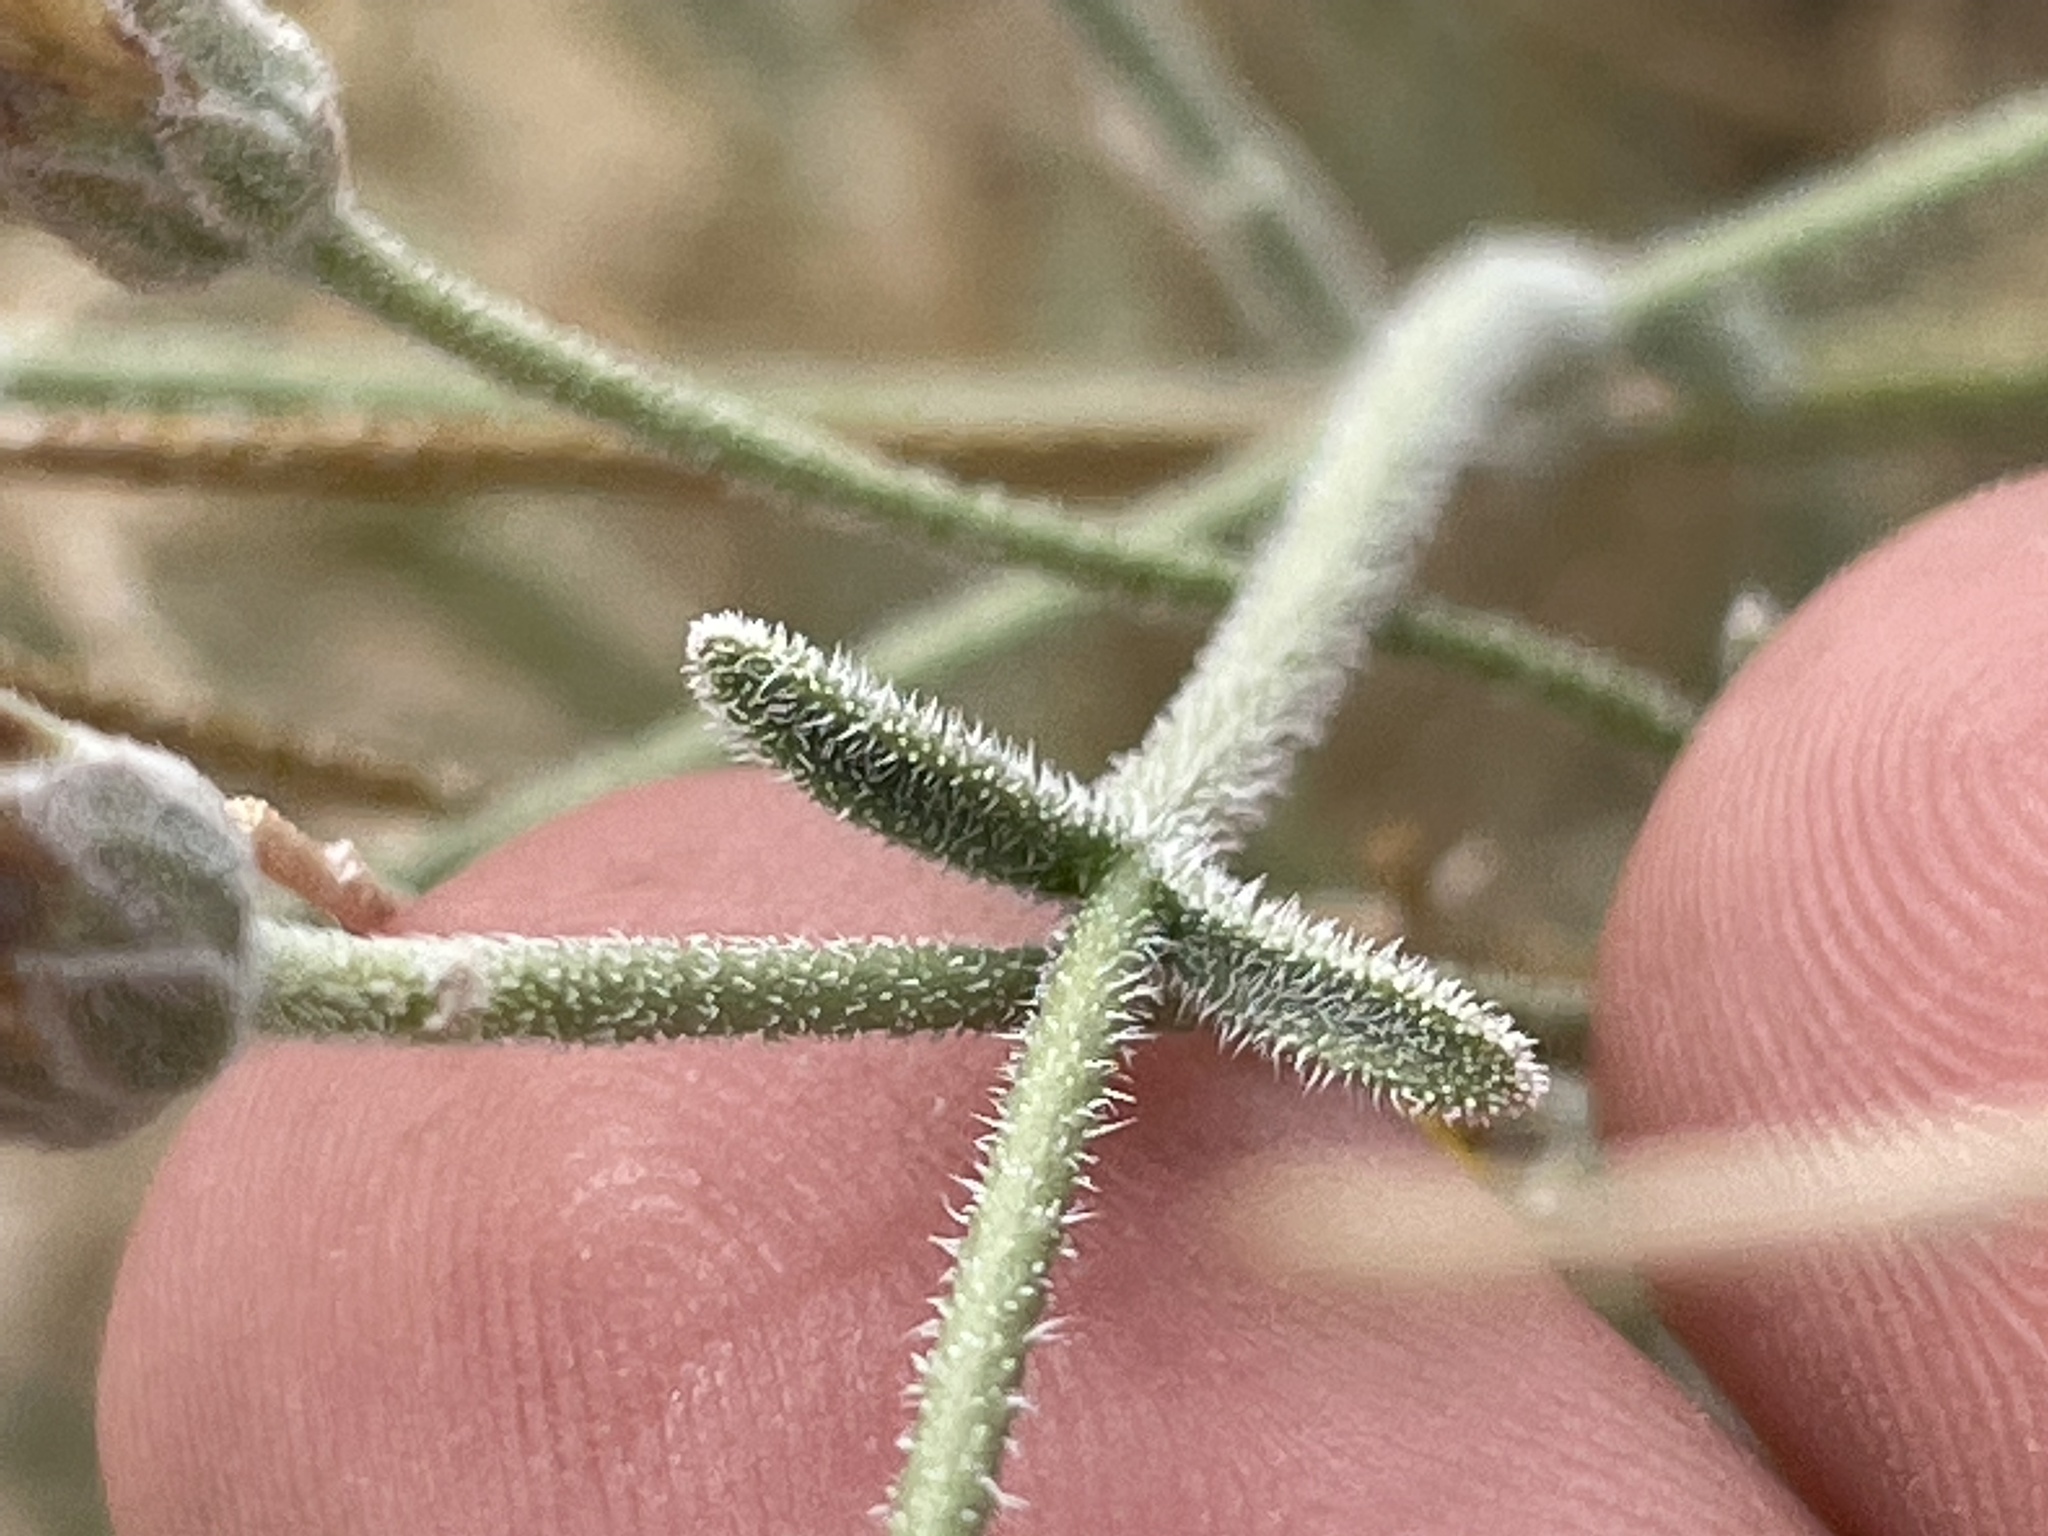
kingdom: Plantae
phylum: Tracheophyta
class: Magnoliopsida
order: Asterales
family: Asteraceae
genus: Bebbia
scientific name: Bebbia juncea
